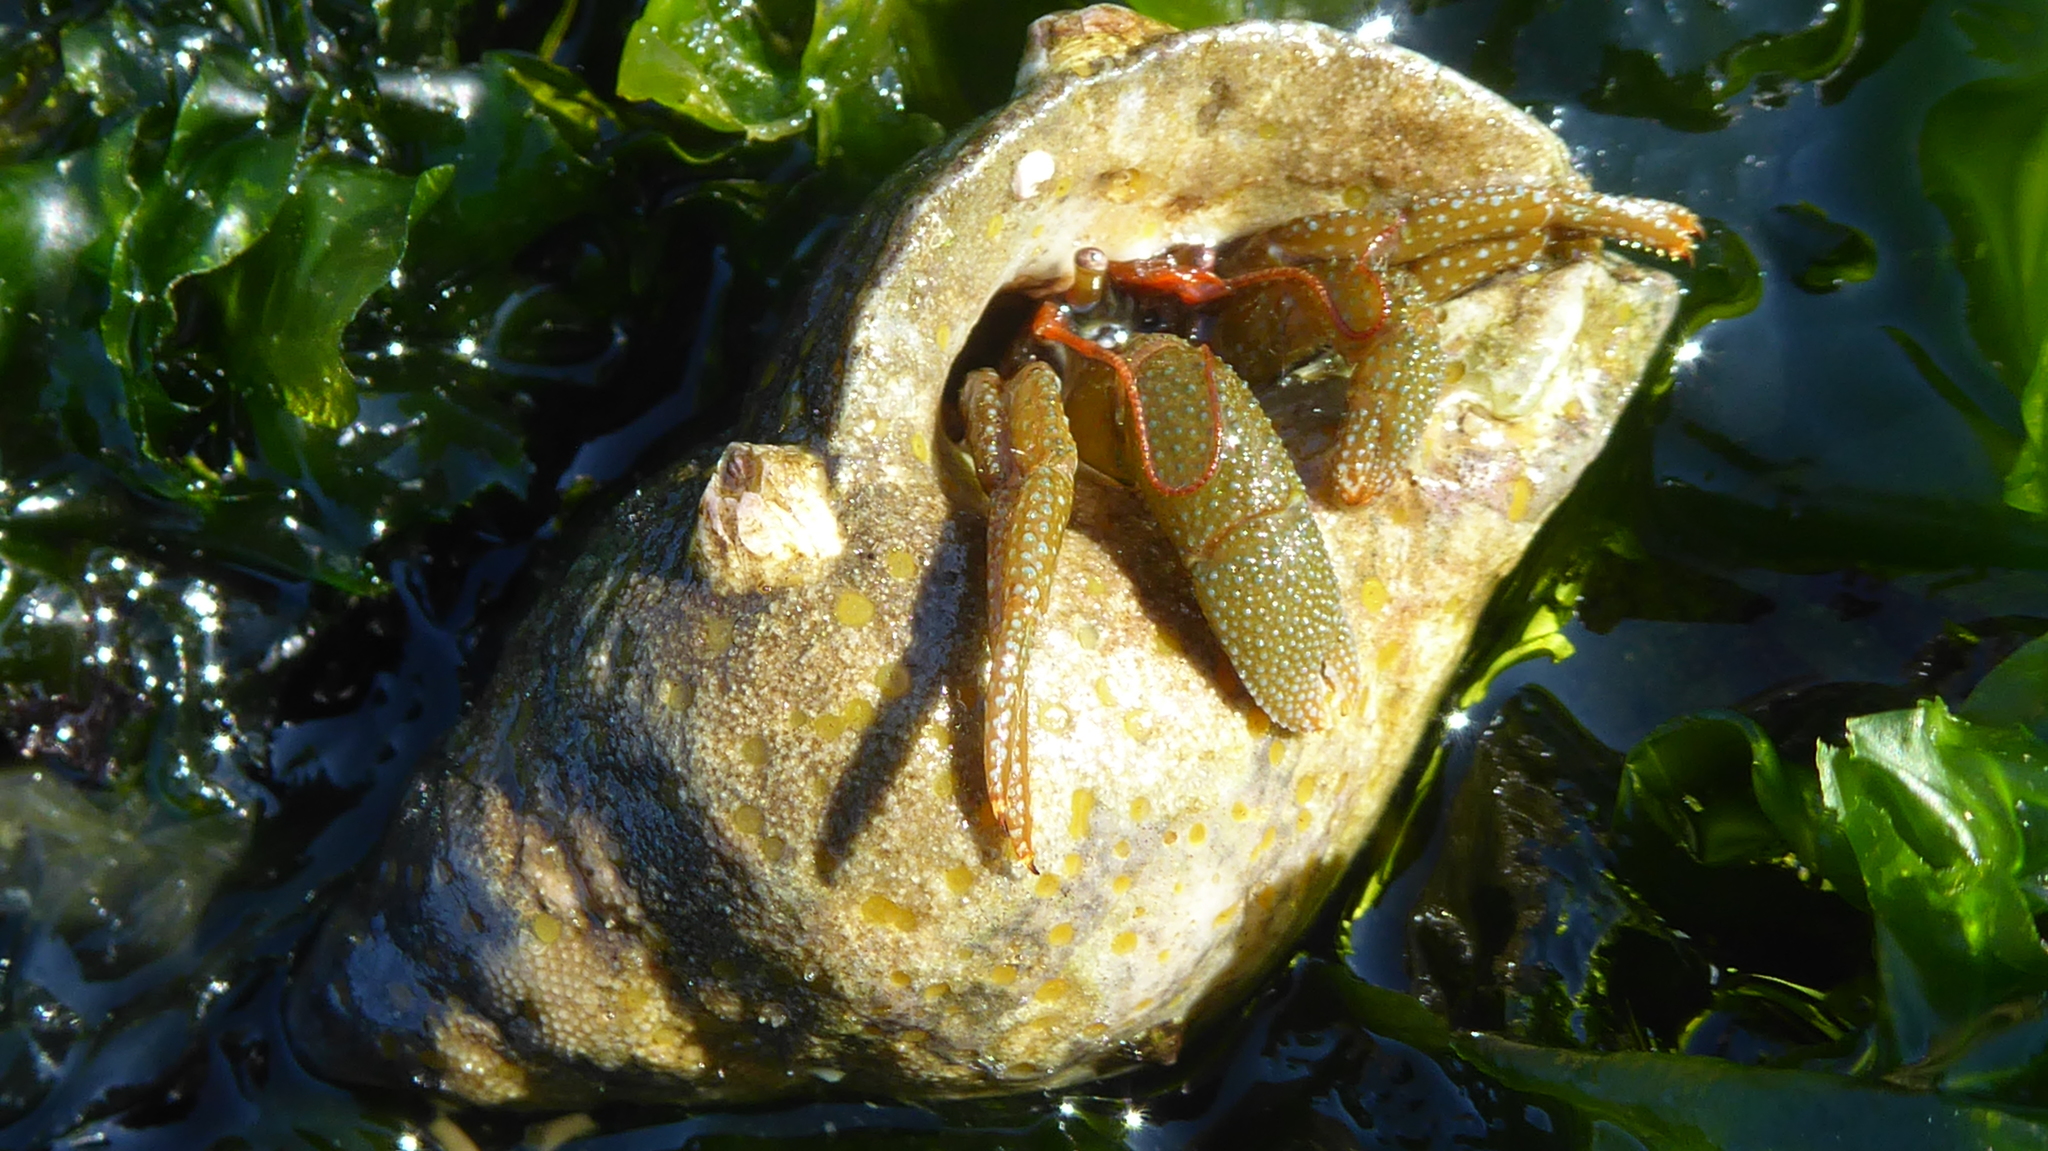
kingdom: Animalia
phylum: Arthropoda
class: Malacostraca
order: Decapoda
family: Paguridae
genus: Pagurus
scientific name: Pagurus granosimanus
